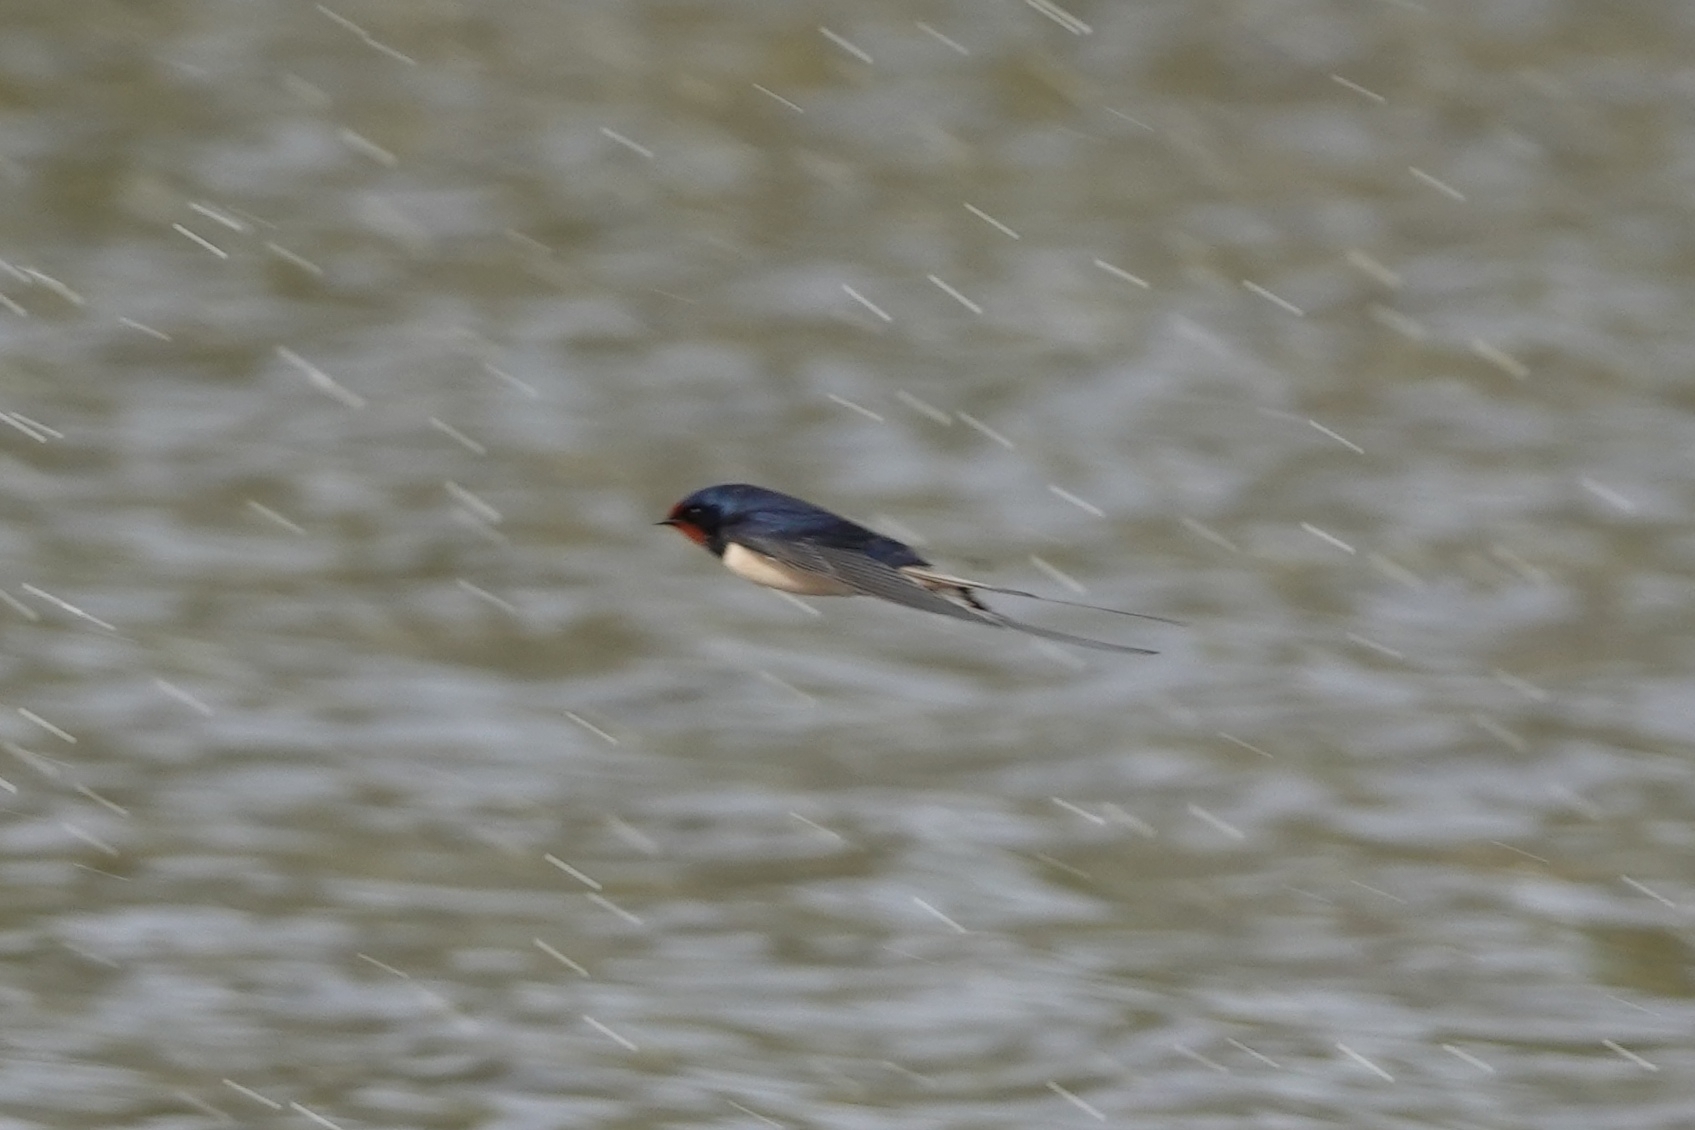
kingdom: Animalia
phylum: Chordata
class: Aves
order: Passeriformes
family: Hirundinidae
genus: Hirundo
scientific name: Hirundo rustica
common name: Barn swallow
